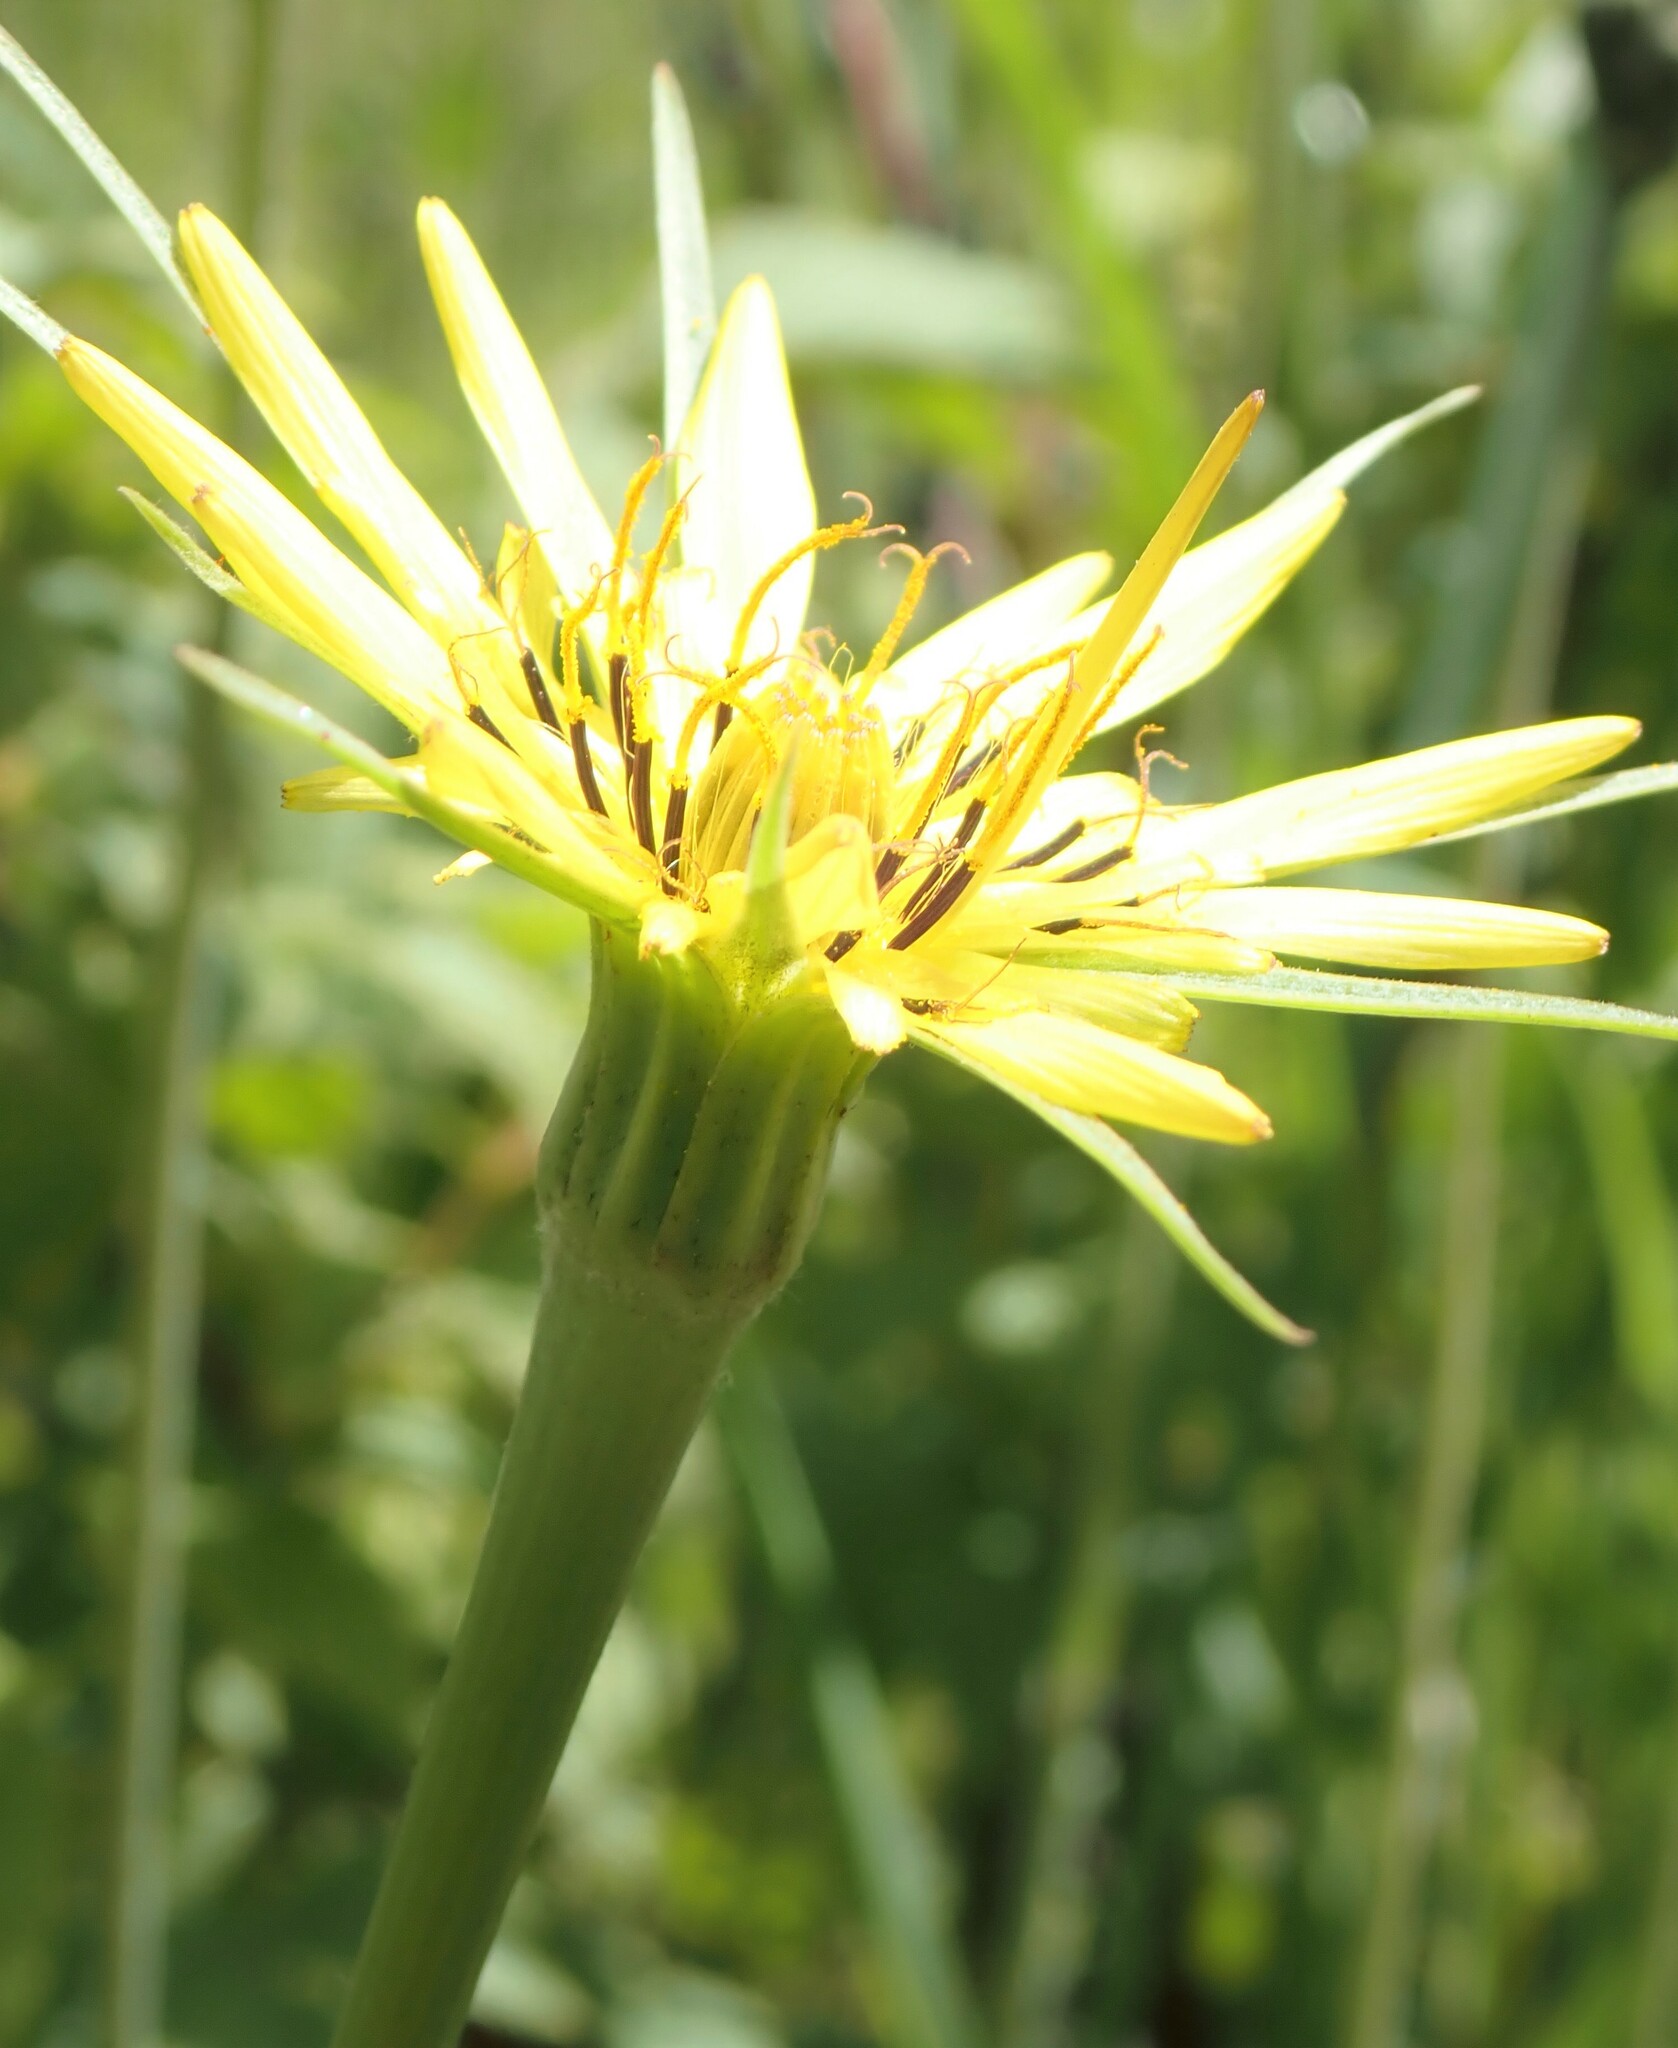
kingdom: Plantae
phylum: Tracheophyta
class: Magnoliopsida
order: Asterales
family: Asteraceae
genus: Tragopogon
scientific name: Tragopogon dubius
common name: Yellow salsify
